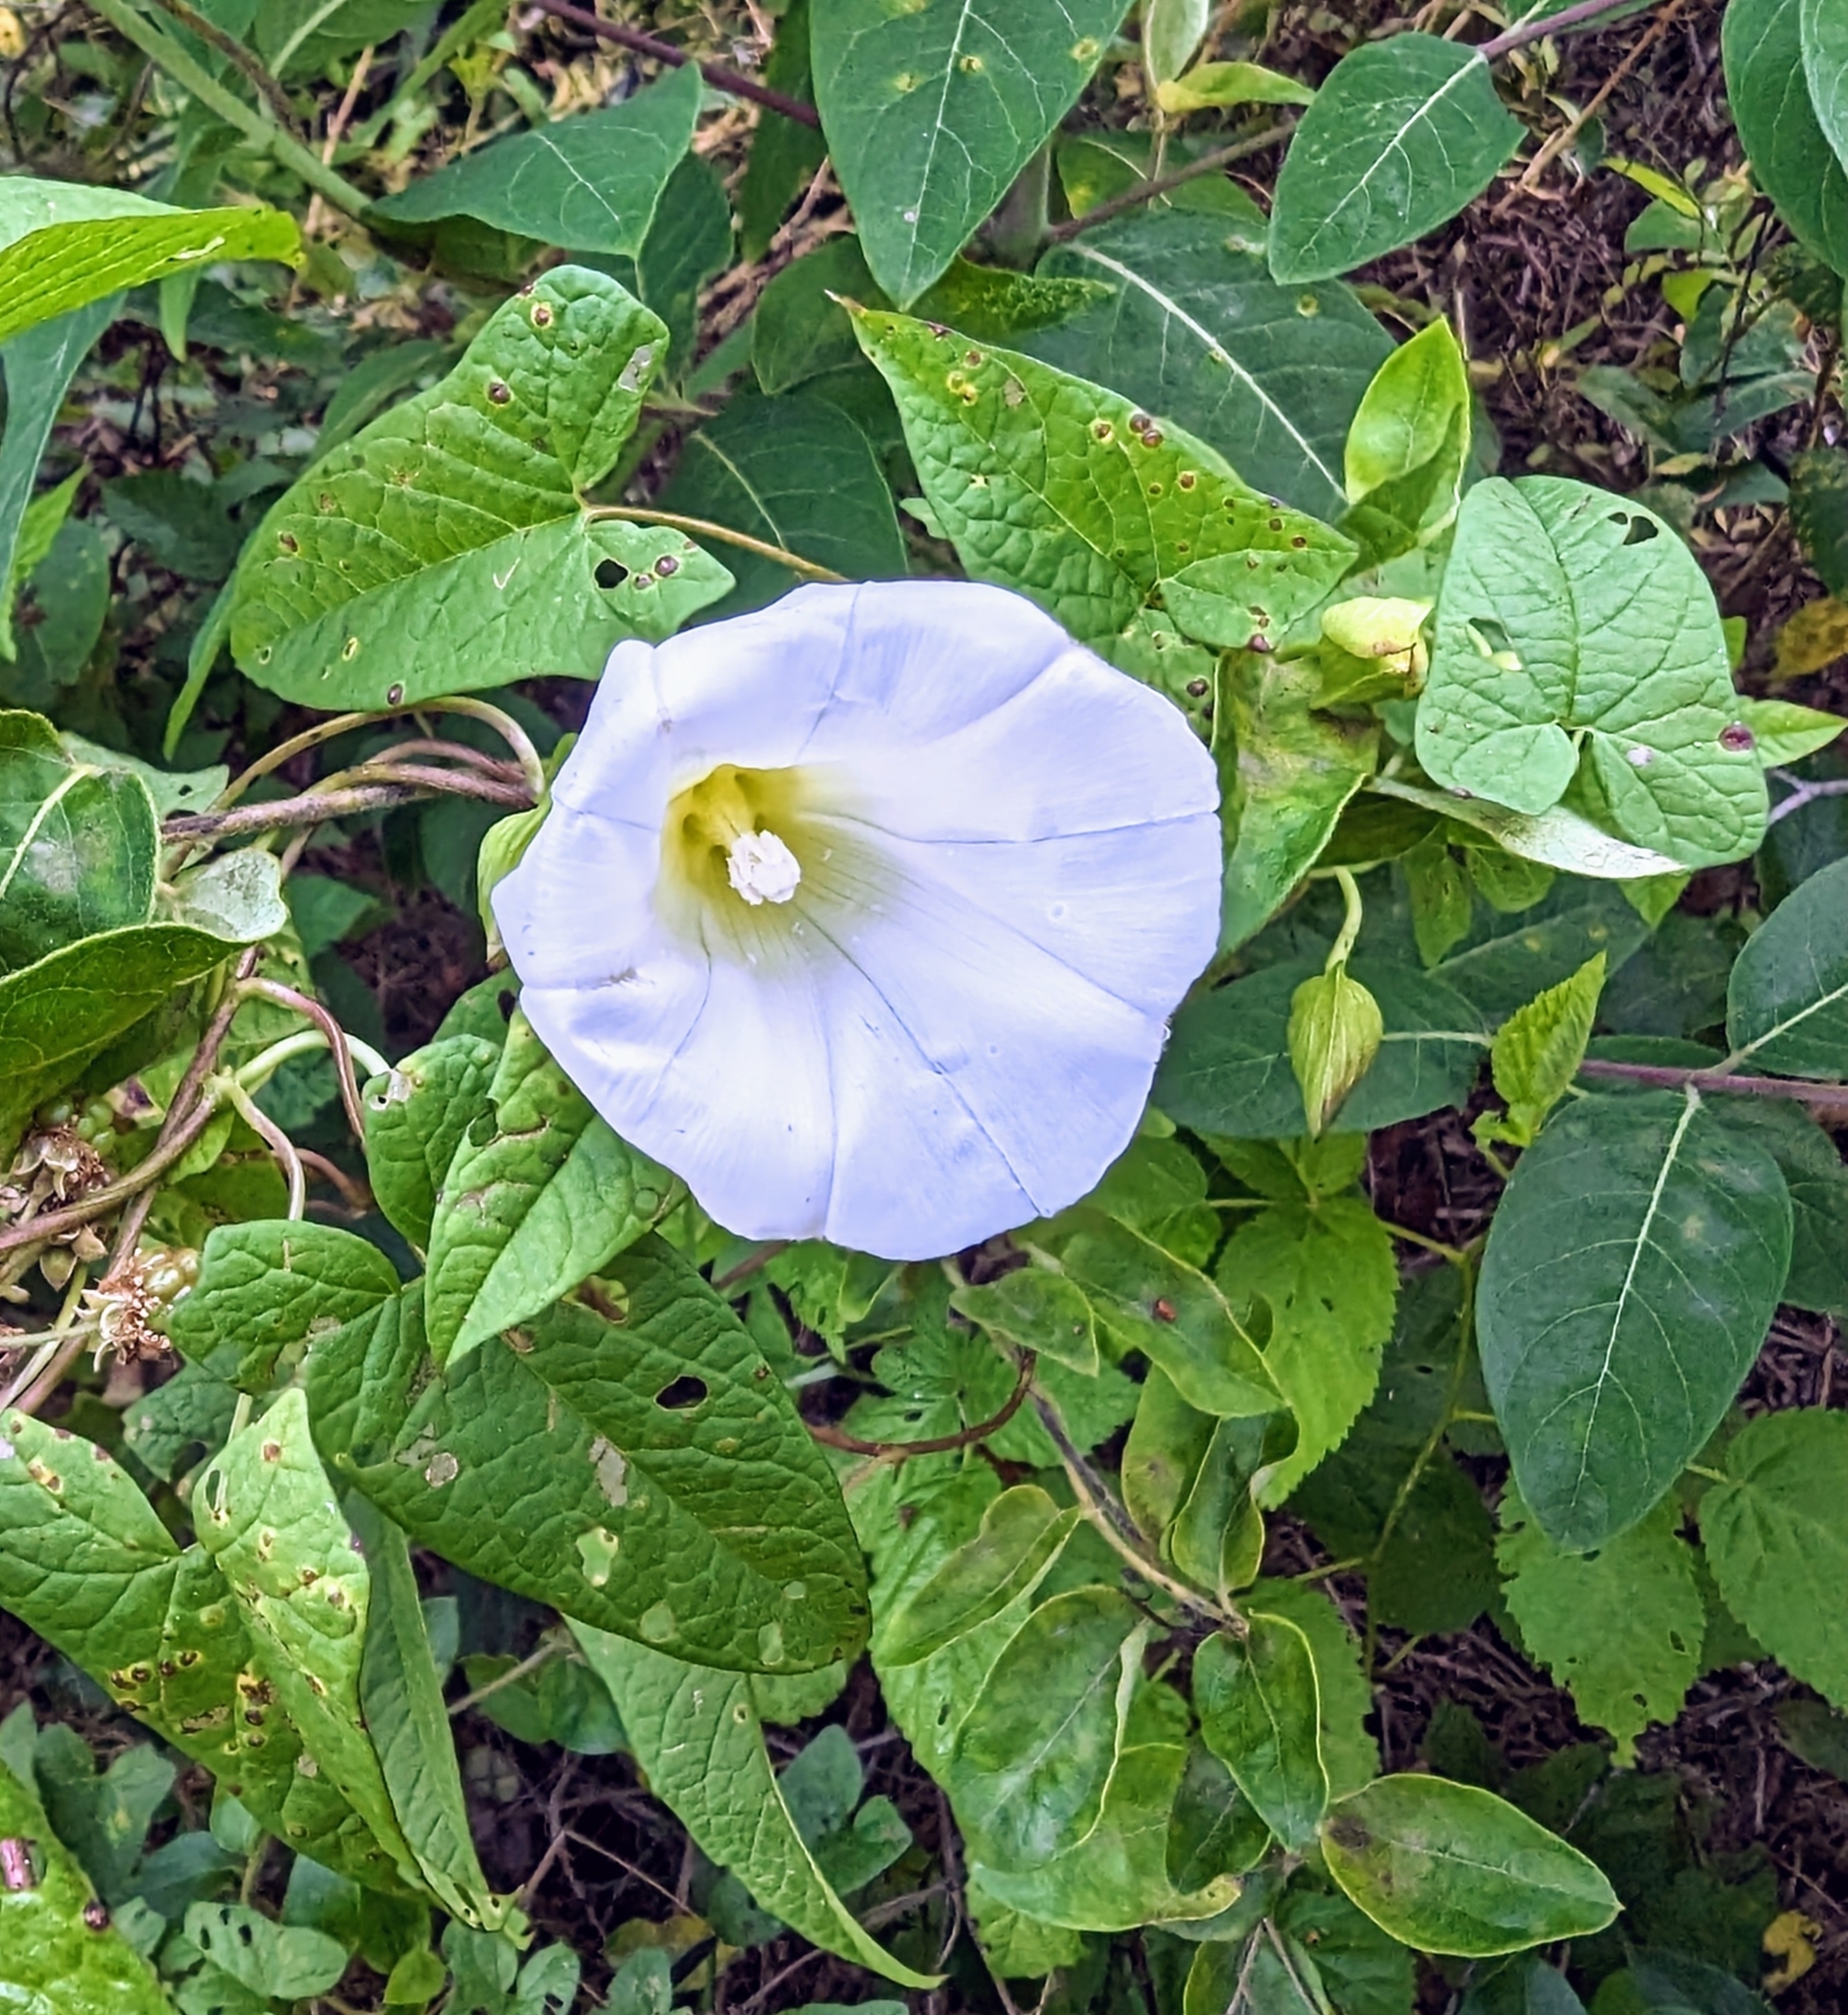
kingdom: Plantae
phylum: Tracheophyta
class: Magnoliopsida
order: Solanales
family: Convolvulaceae
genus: Calystegia
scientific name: Calystegia silvatica
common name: Large bindweed
